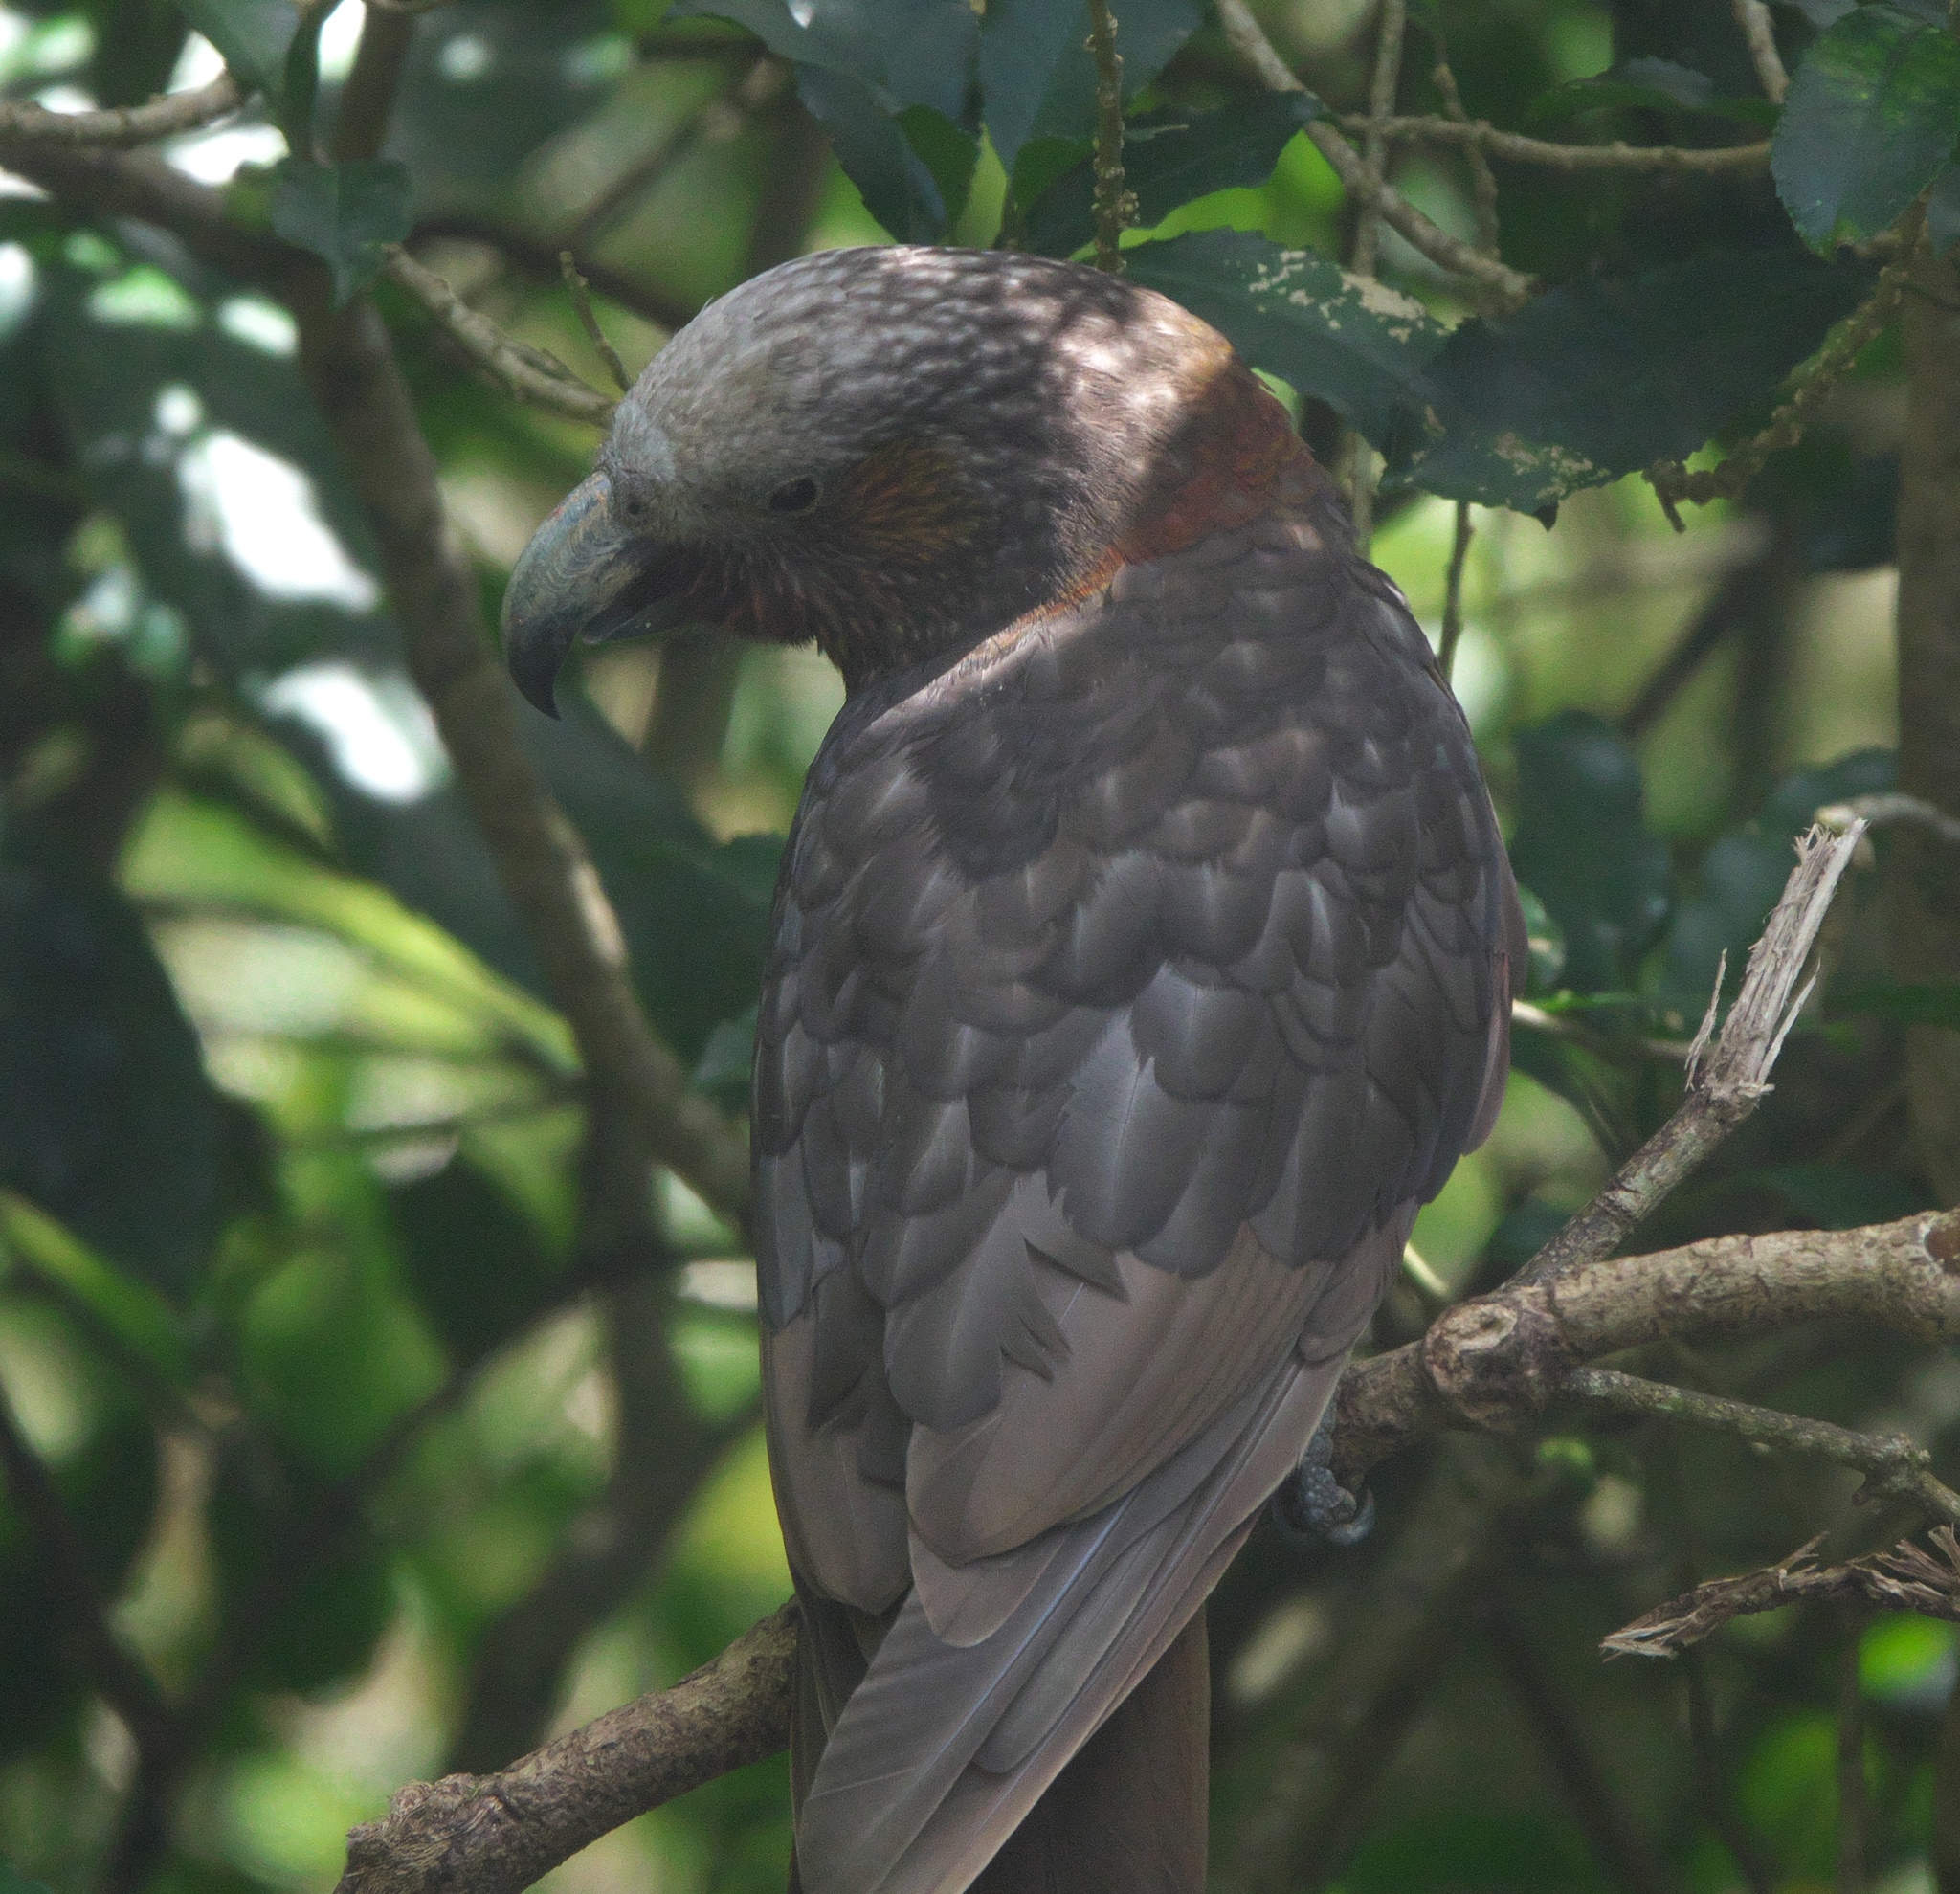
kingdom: Animalia
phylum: Chordata
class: Aves
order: Psittaciformes
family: Psittacidae
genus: Nestor
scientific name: Nestor meridionalis
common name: New zealand kaka
